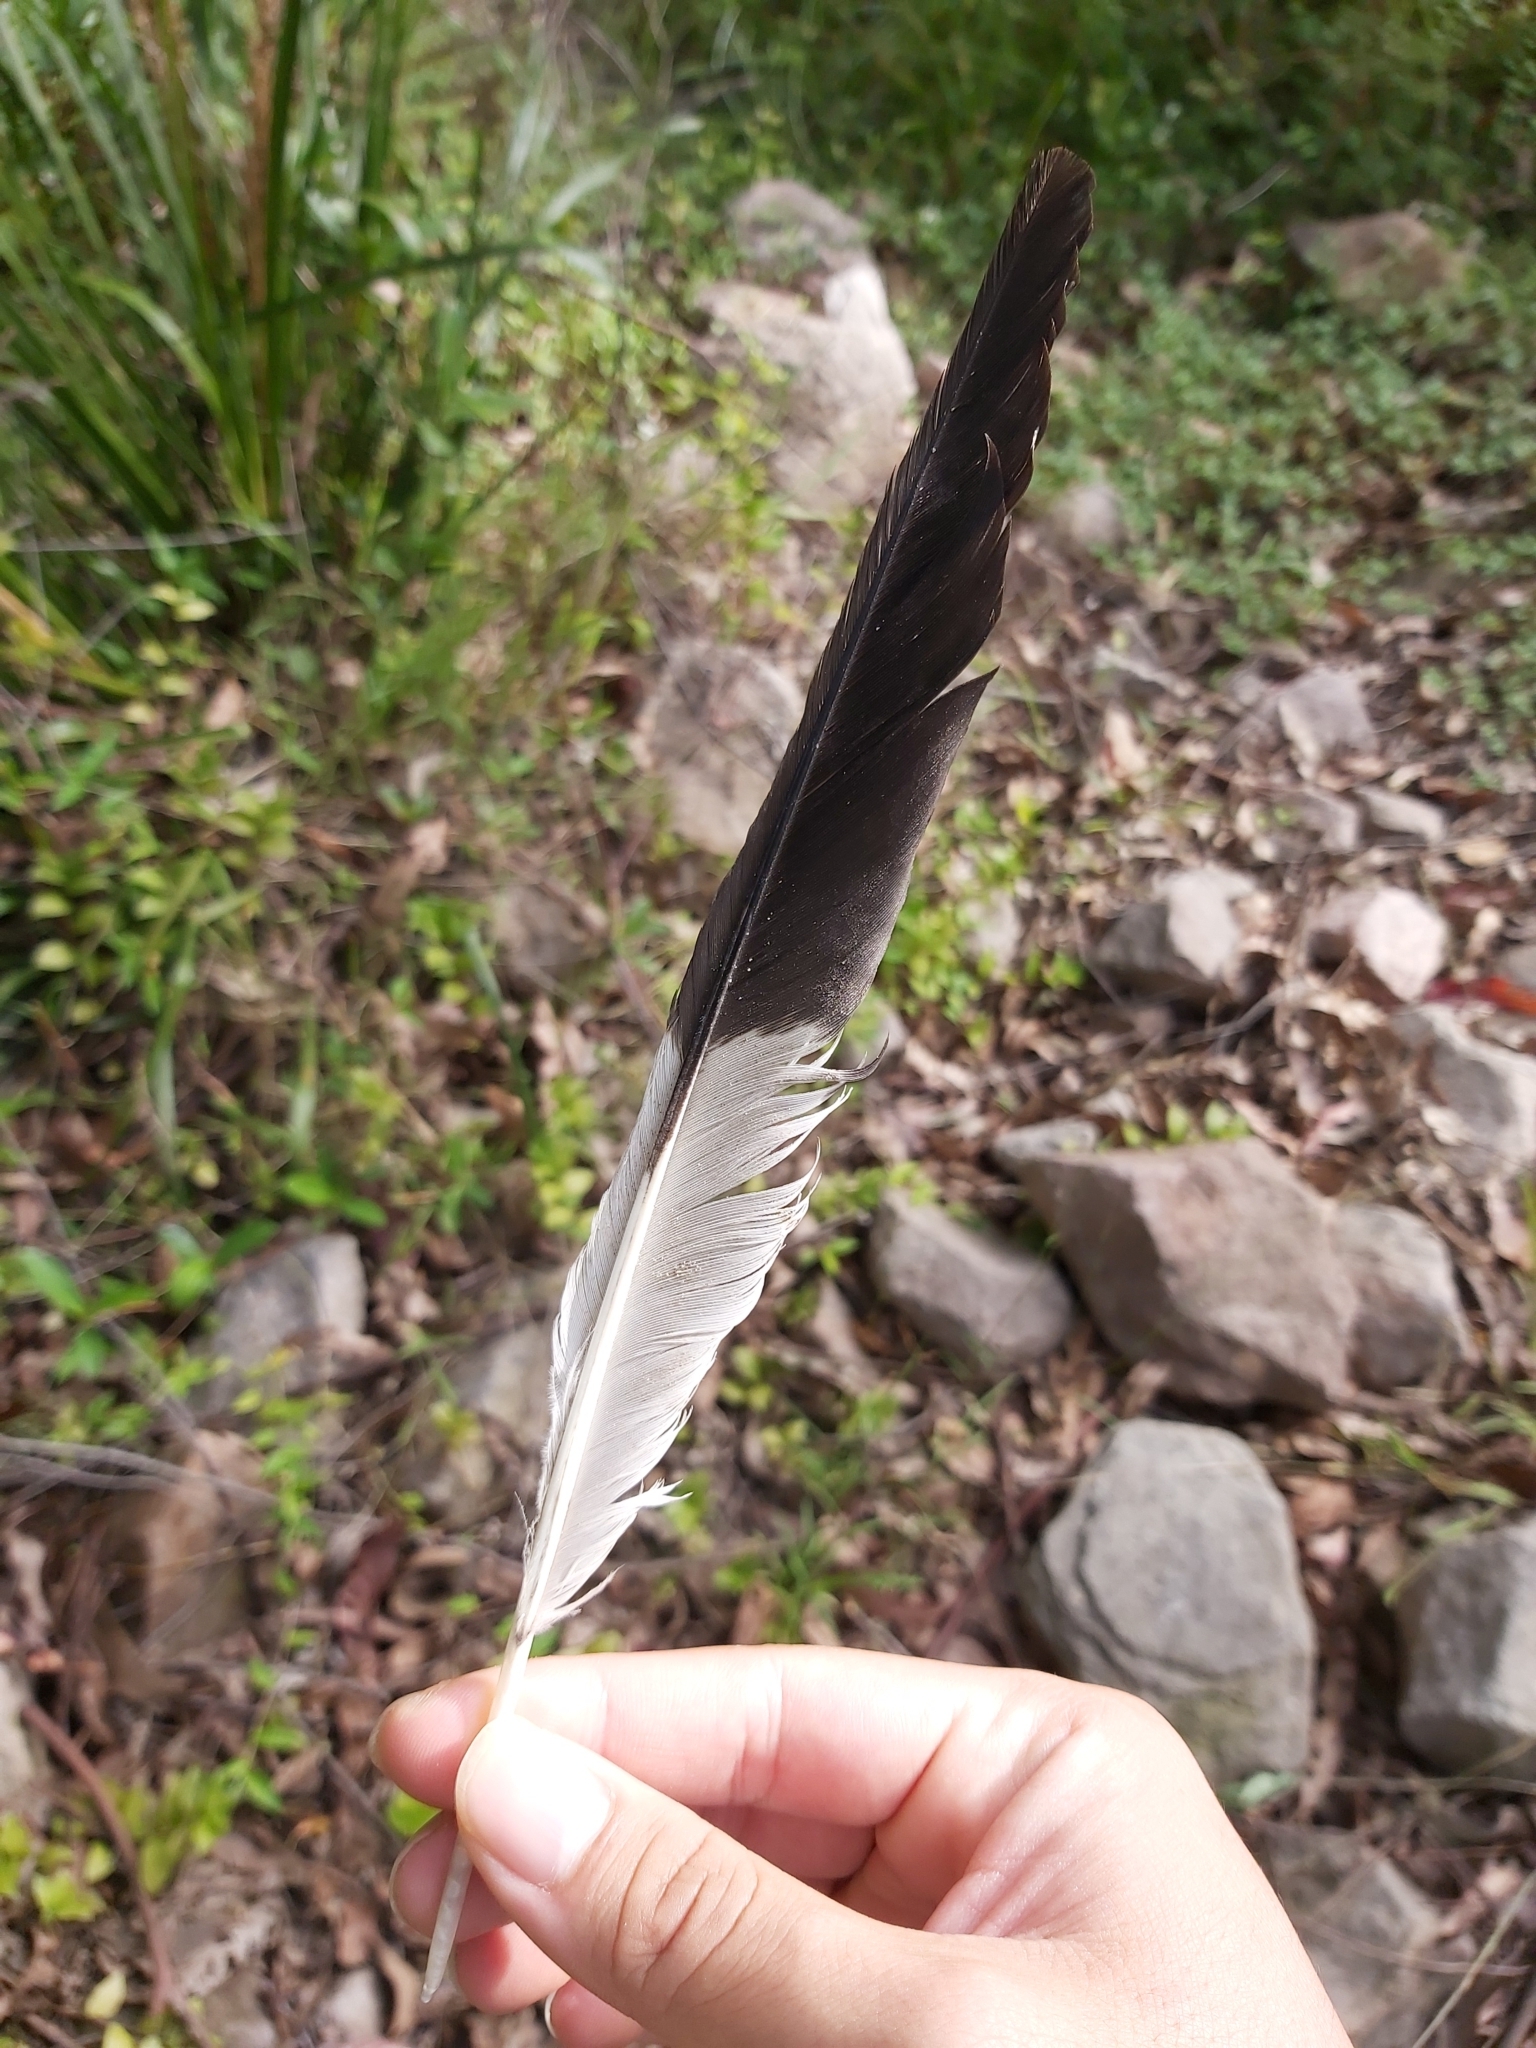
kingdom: Animalia
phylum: Chordata
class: Aves
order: Passeriformes
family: Cracticidae
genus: Strepera
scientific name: Strepera graculina
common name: Pied currawong
